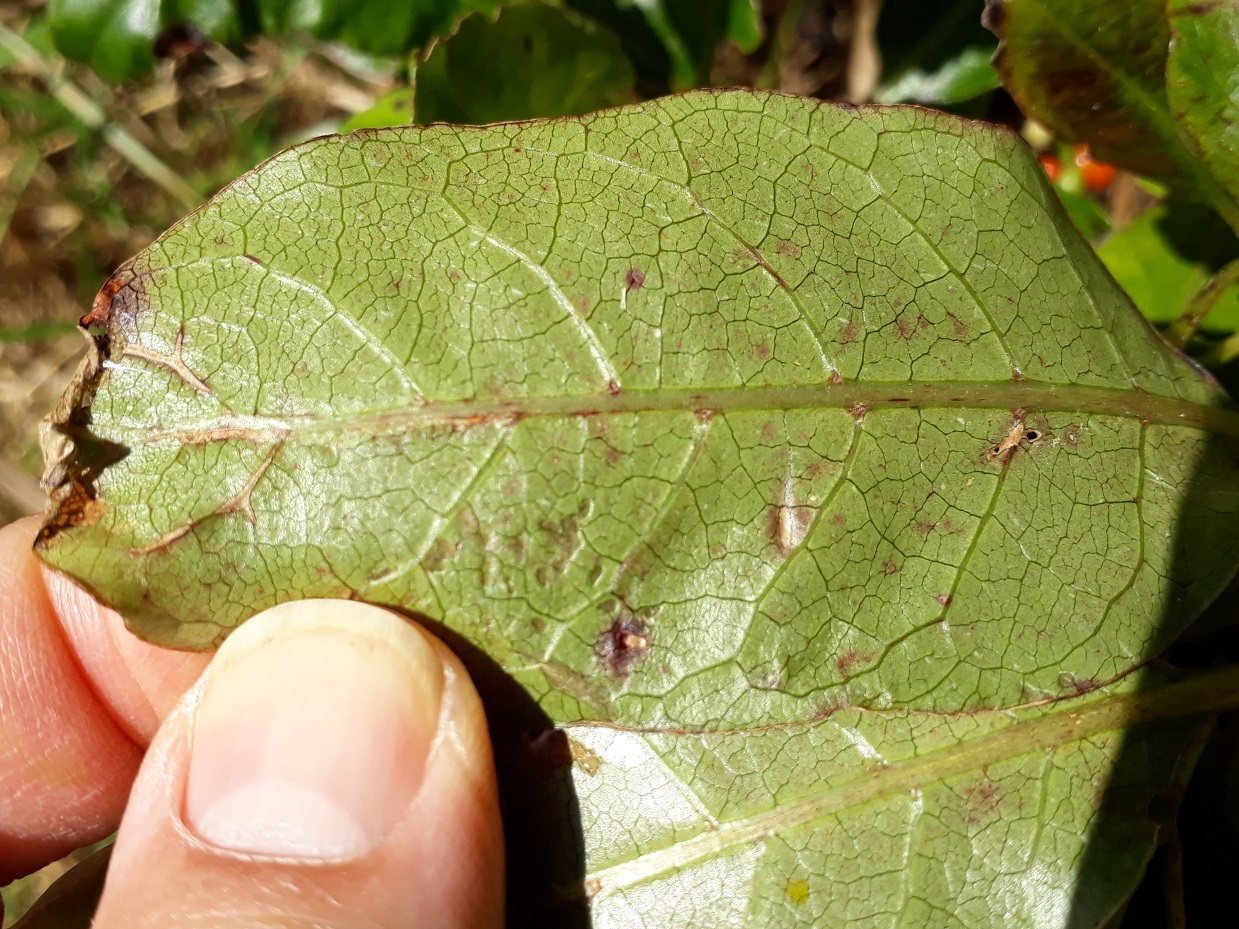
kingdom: Plantae
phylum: Tracheophyta
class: Magnoliopsida
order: Gentianales
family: Rubiaceae
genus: Coprosma
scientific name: Coprosma autumnalis
